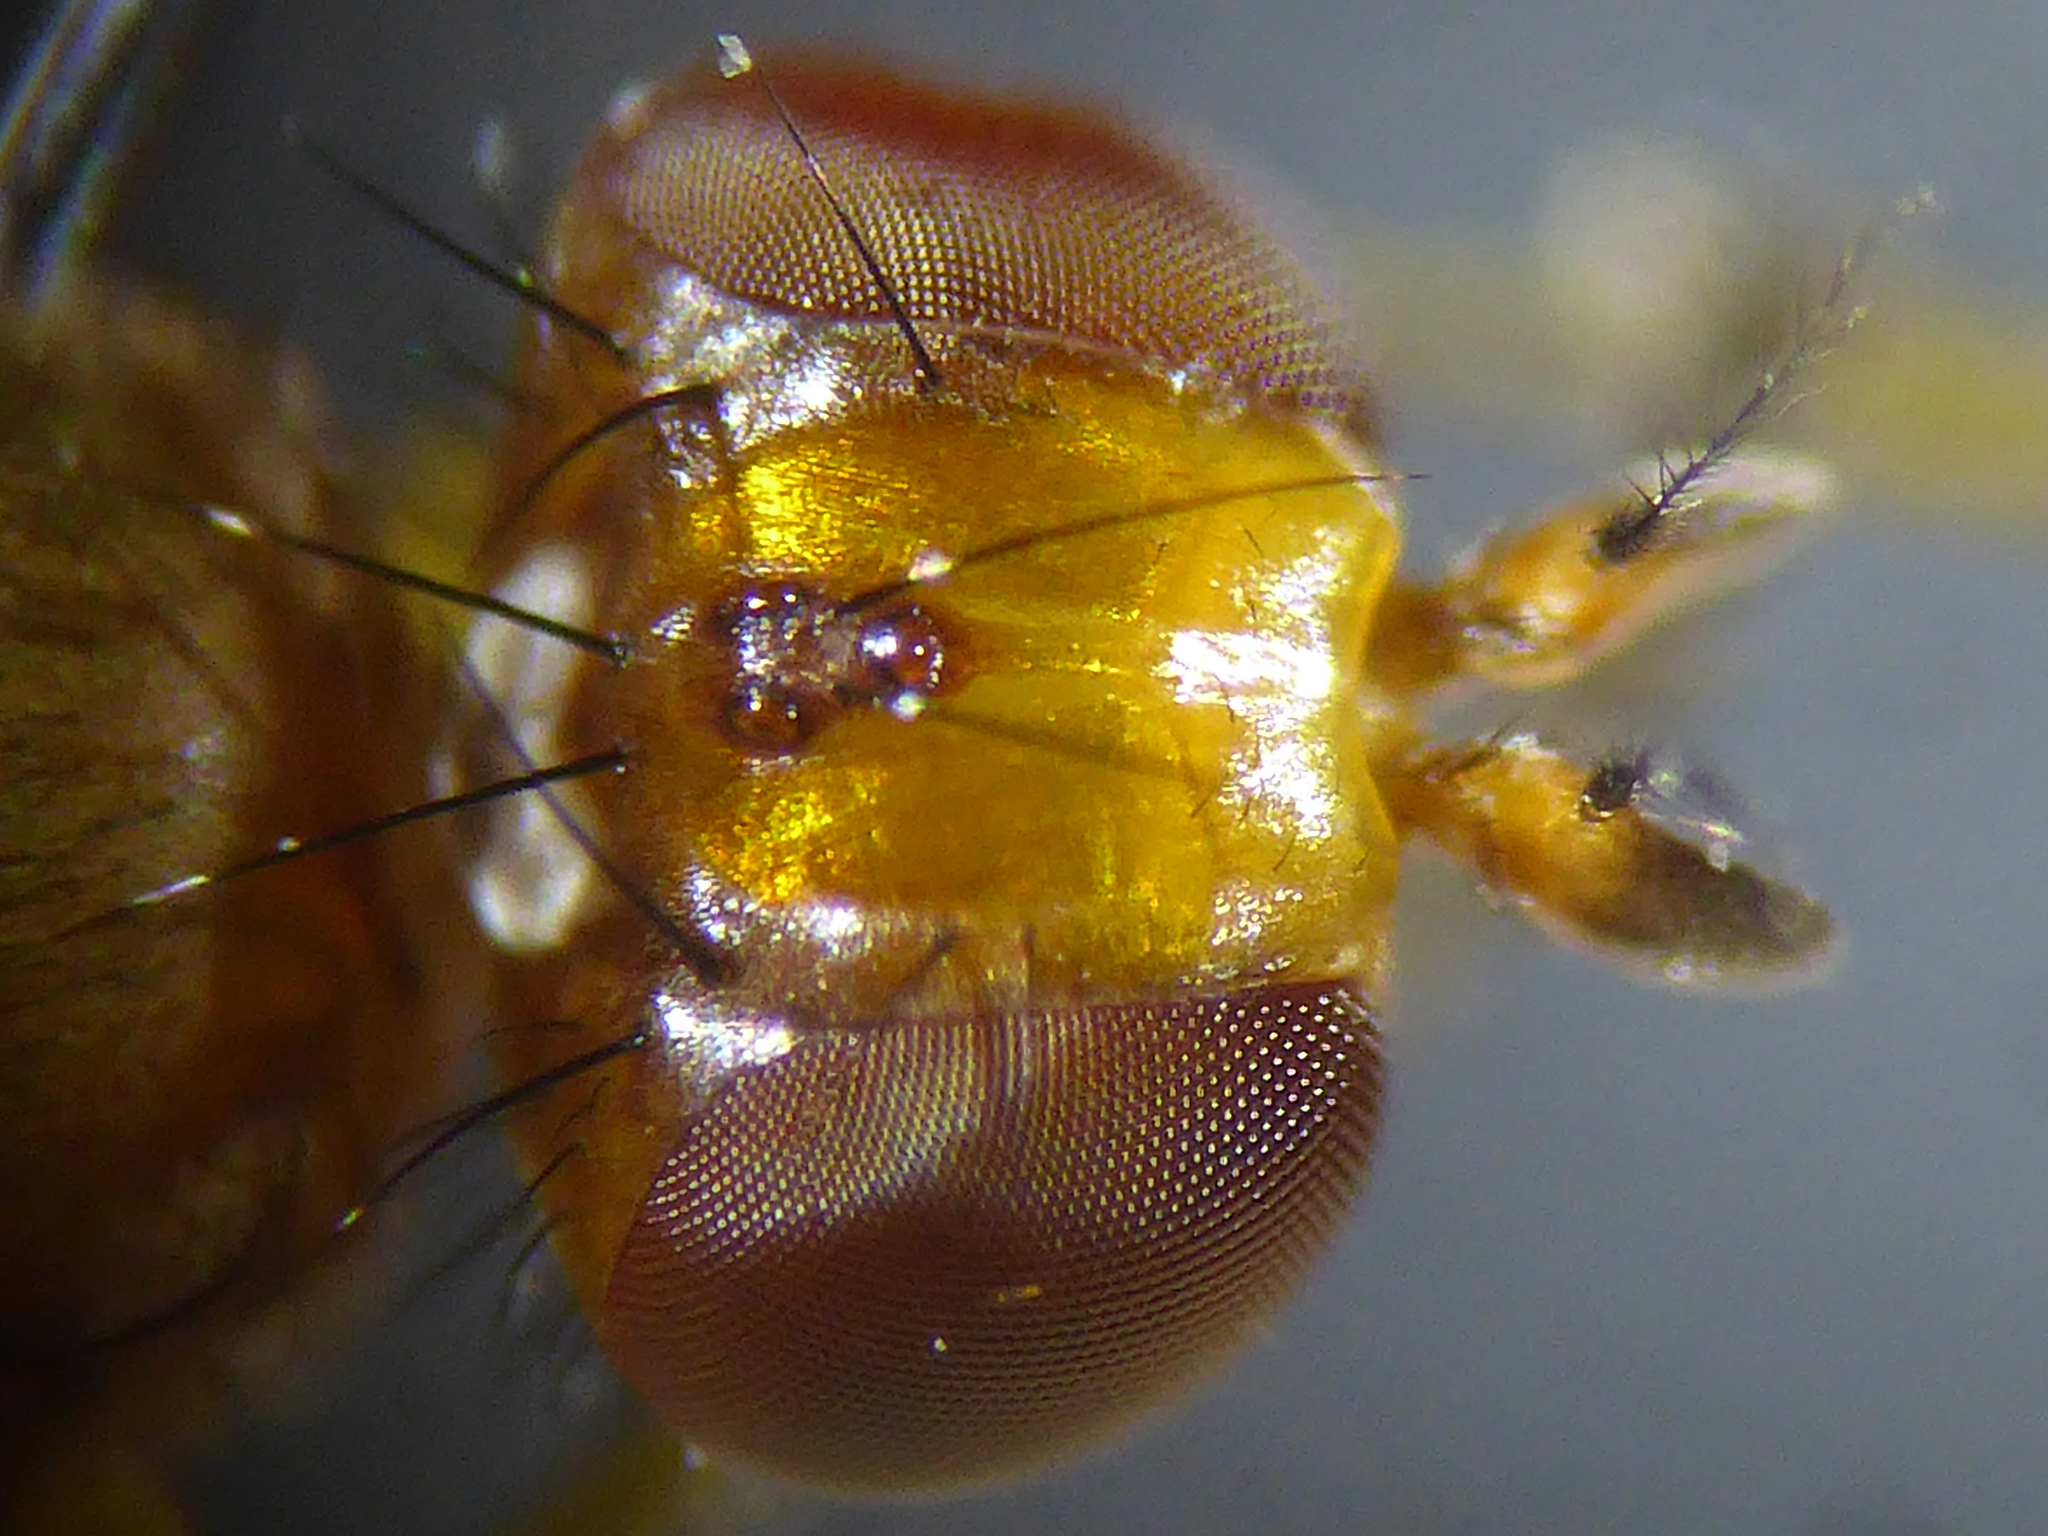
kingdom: Animalia
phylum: Arthropoda
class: Insecta
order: Diptera
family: Sciomyzidae
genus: Renocera
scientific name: Renocera pallida
